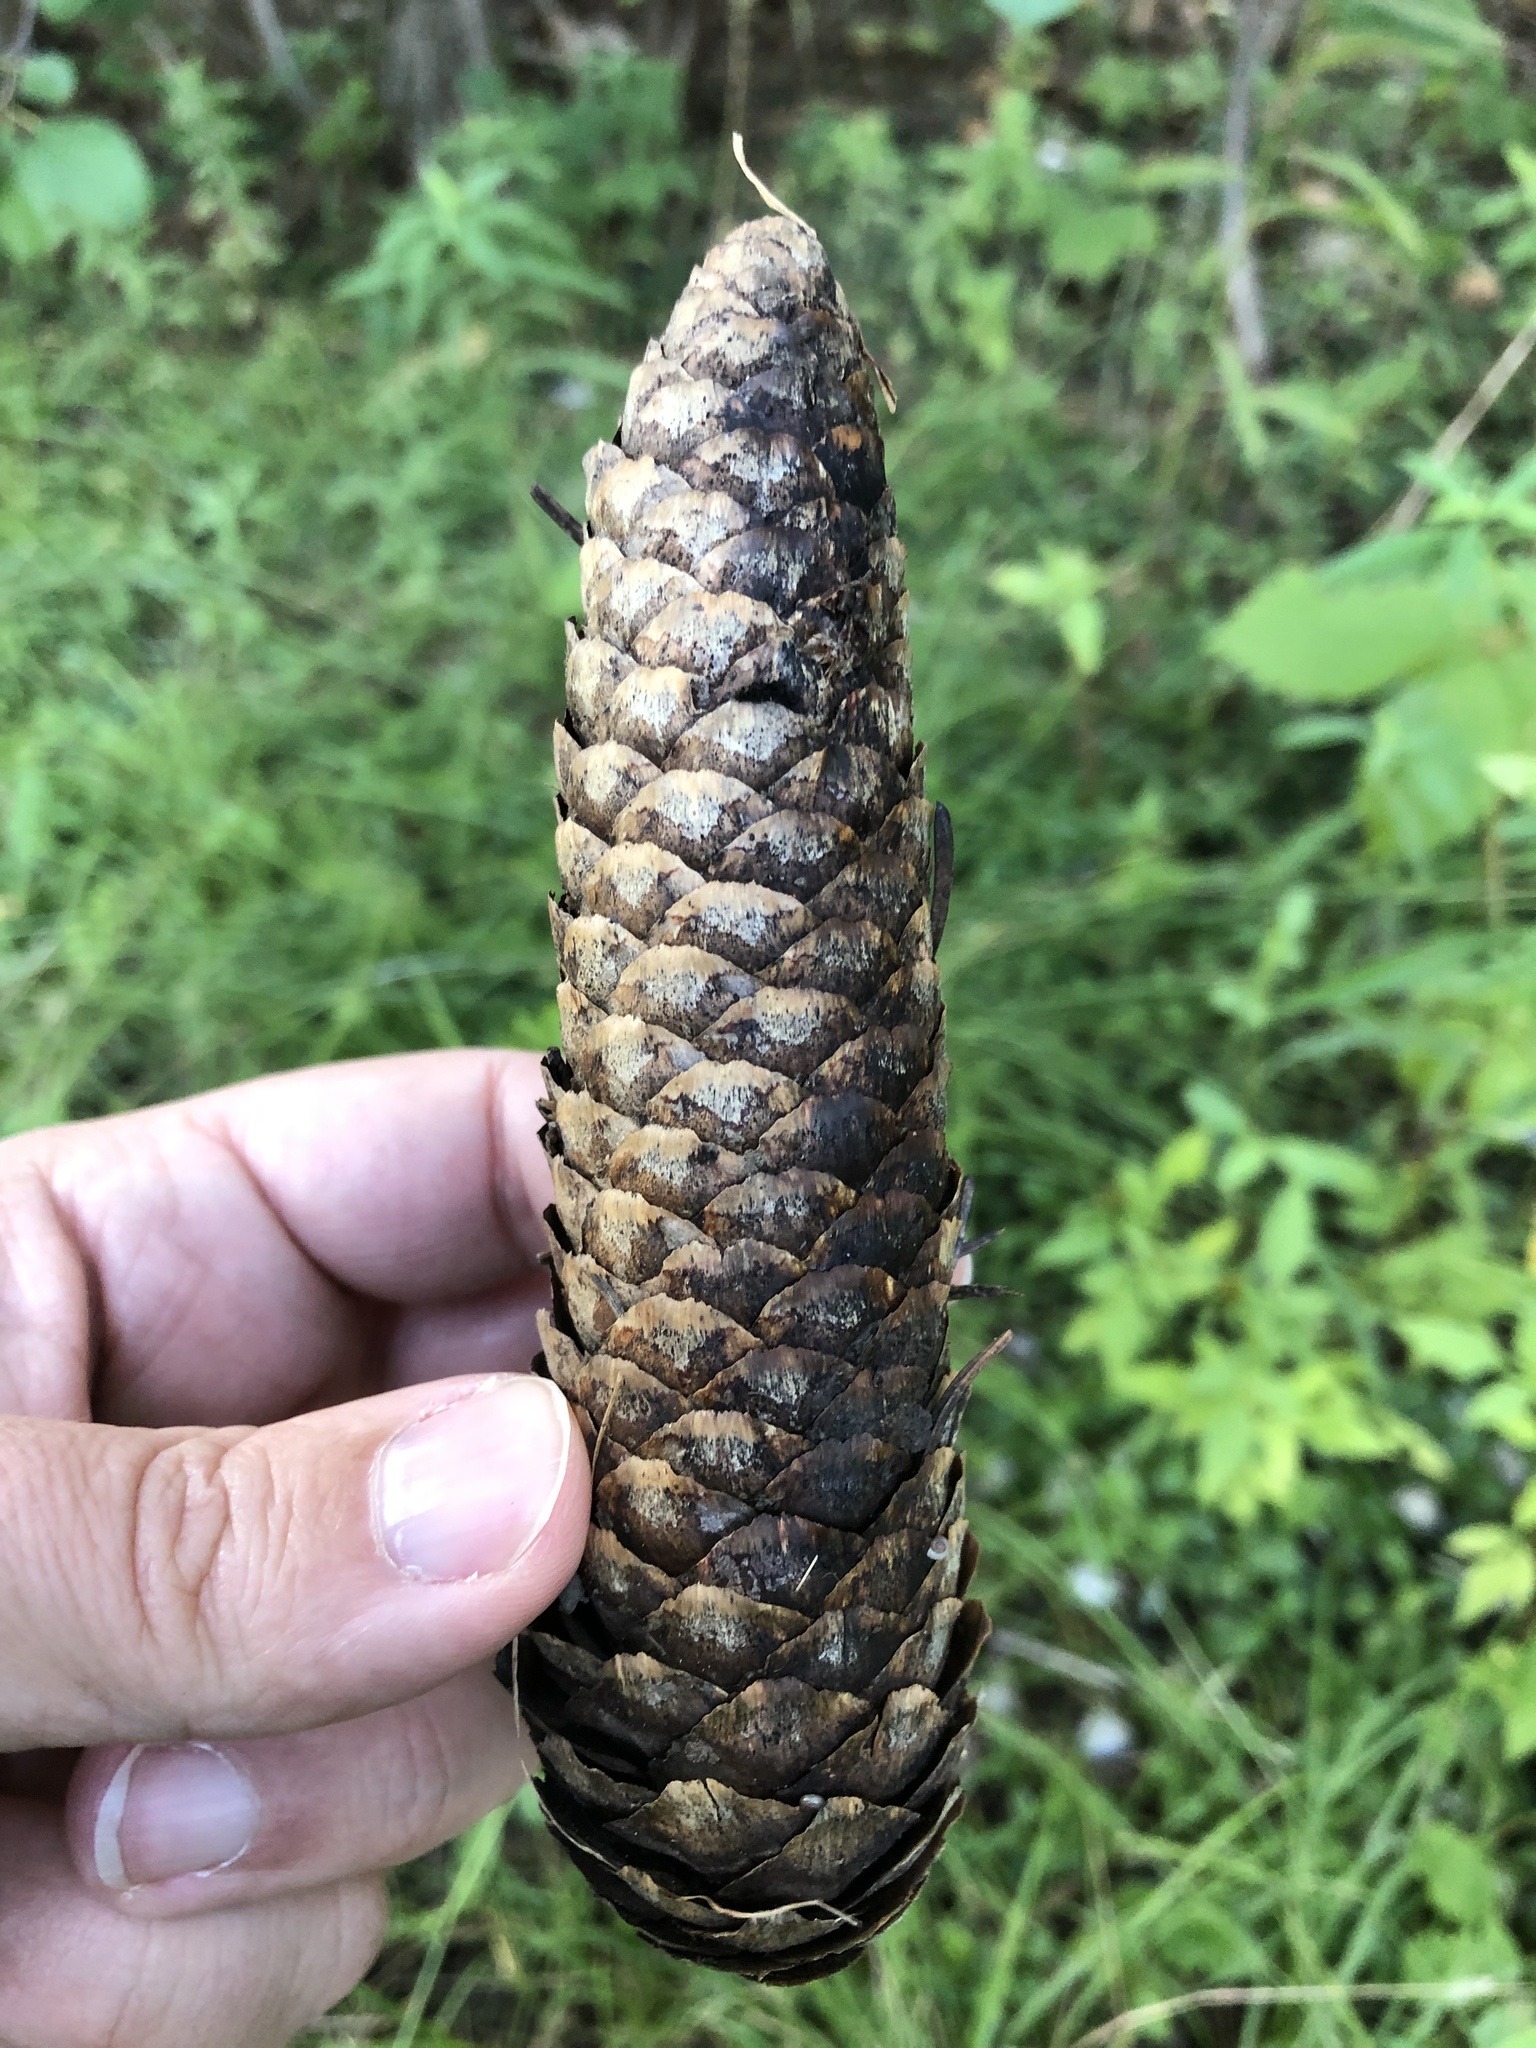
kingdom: Plantae
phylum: Tracheophyta
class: Pinopsida
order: Pinales
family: Pinaceae
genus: Picea
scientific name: Picea abies
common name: Norway spruce
